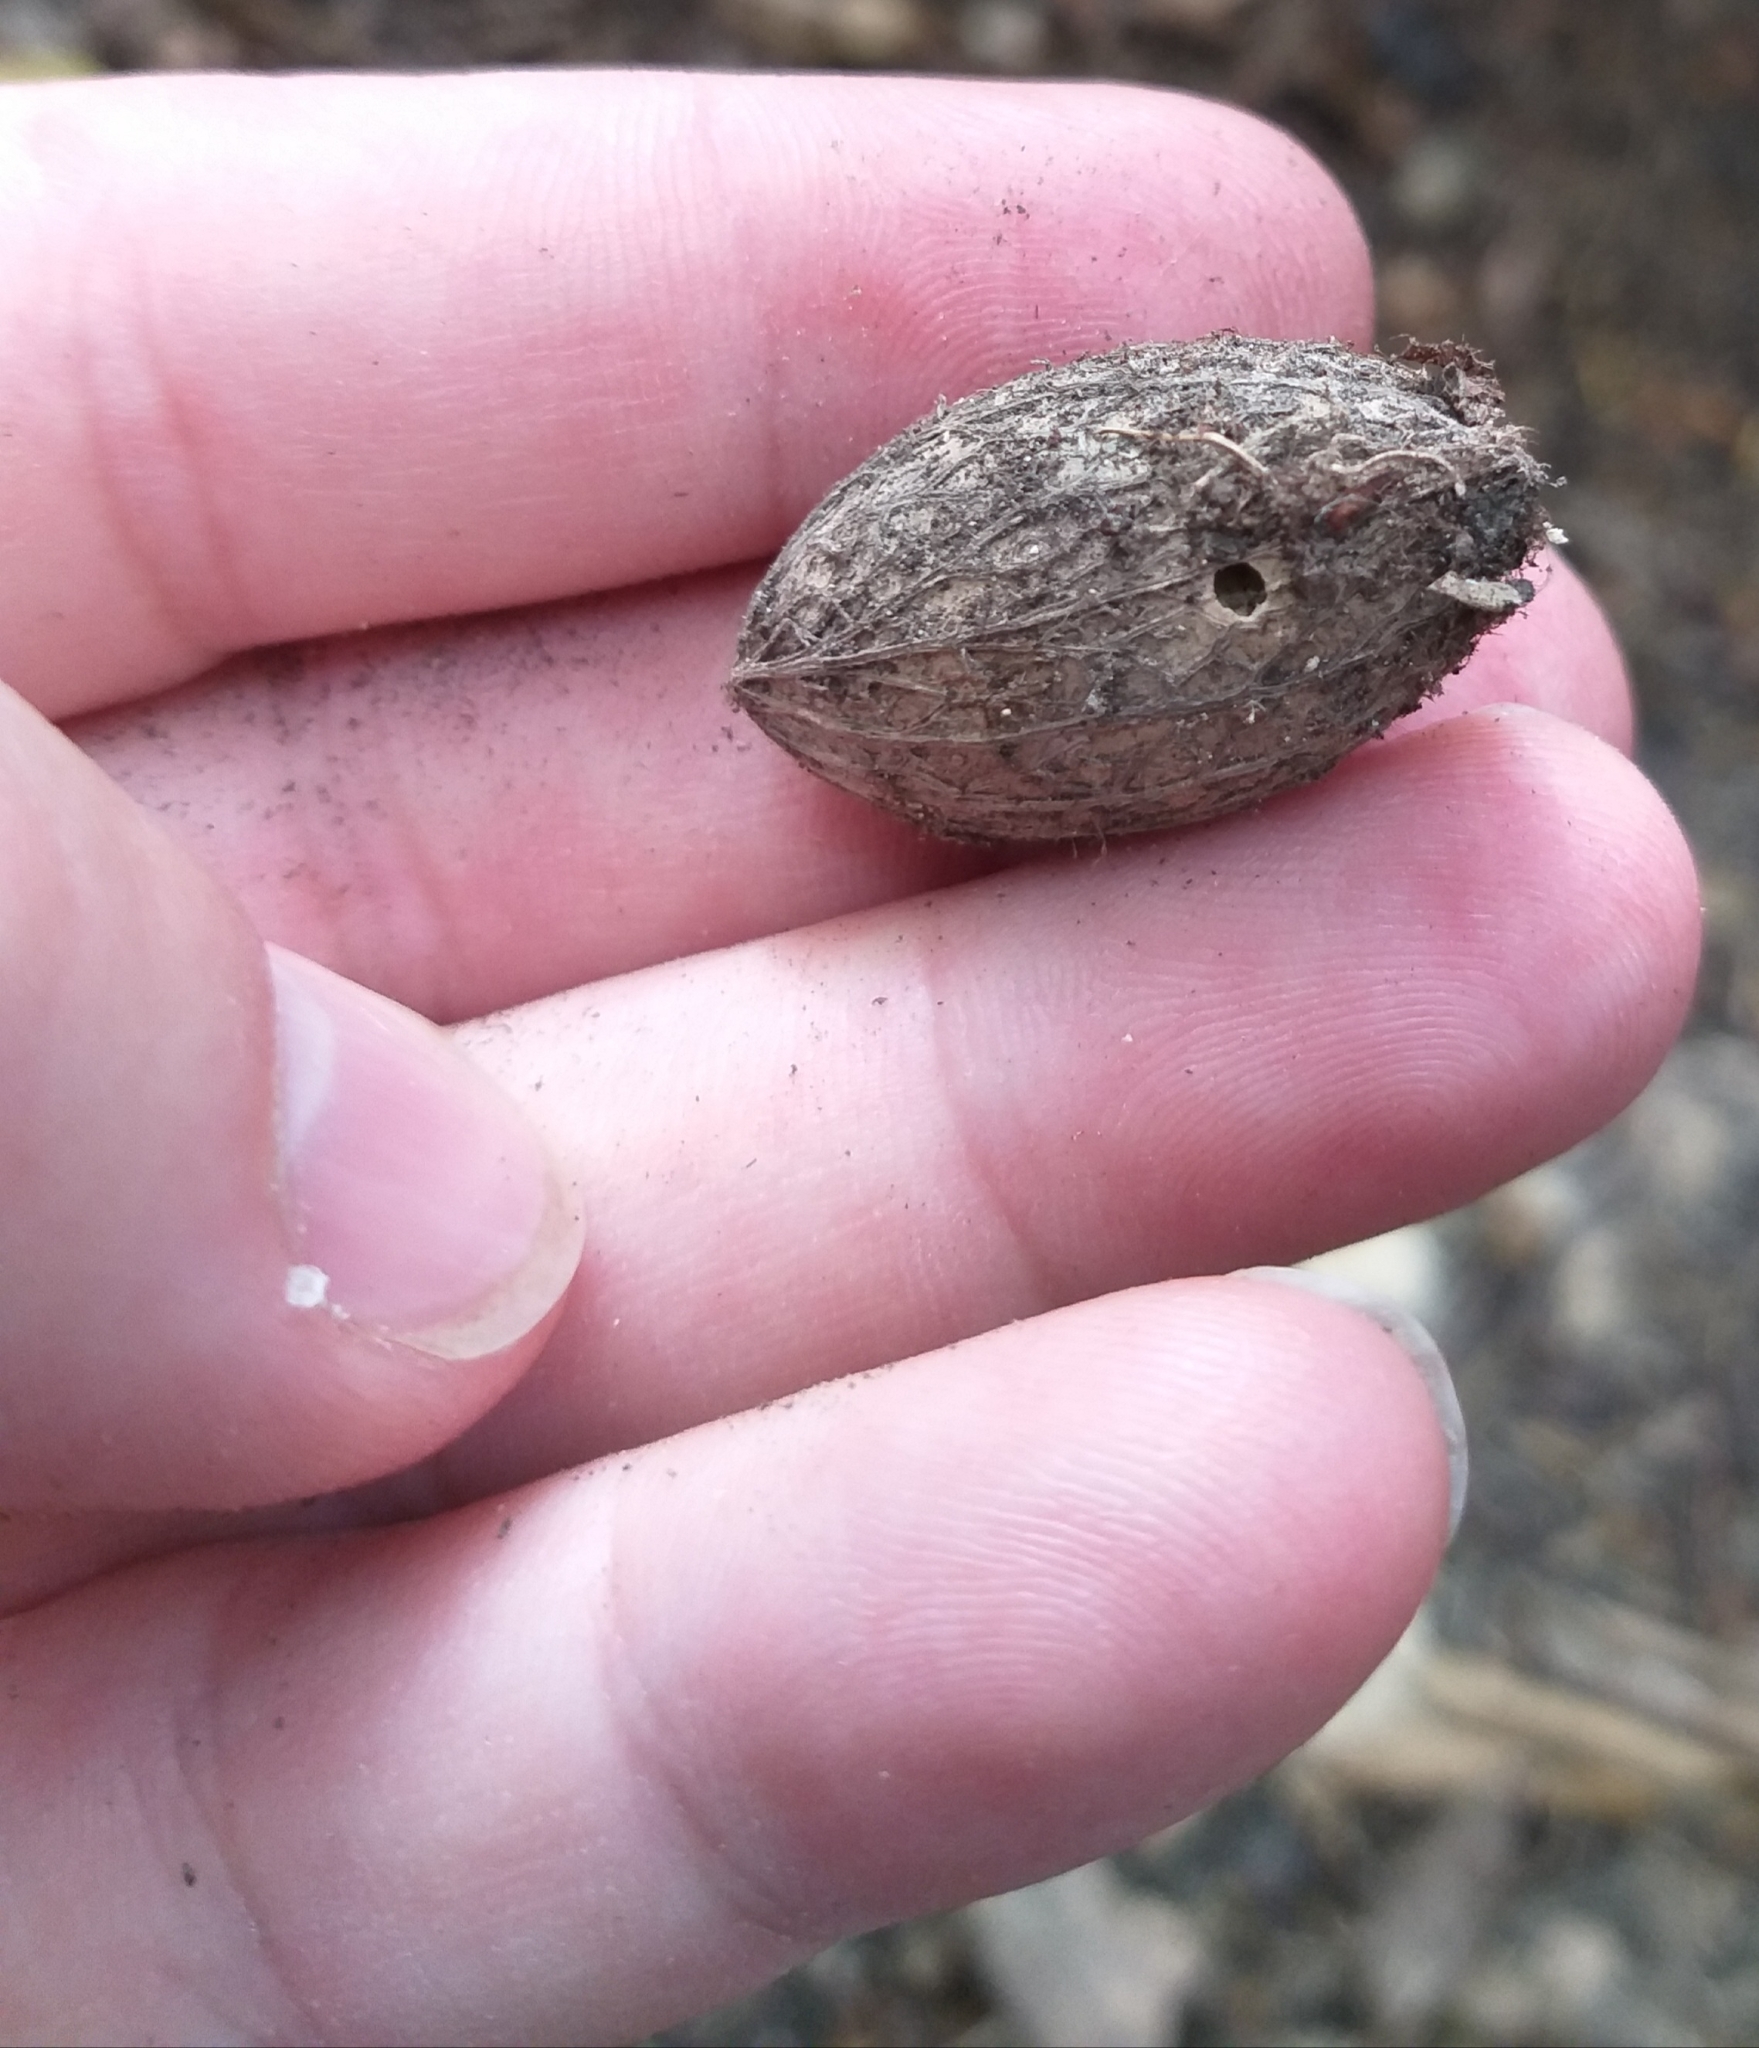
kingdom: Plantae
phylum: Tracheophyta
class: Magnoliopsida
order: Cucurbitales
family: Corynocarpaceae
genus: Corynocarpus
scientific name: Corynocarpus laevigatus
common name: New zealand laurel
